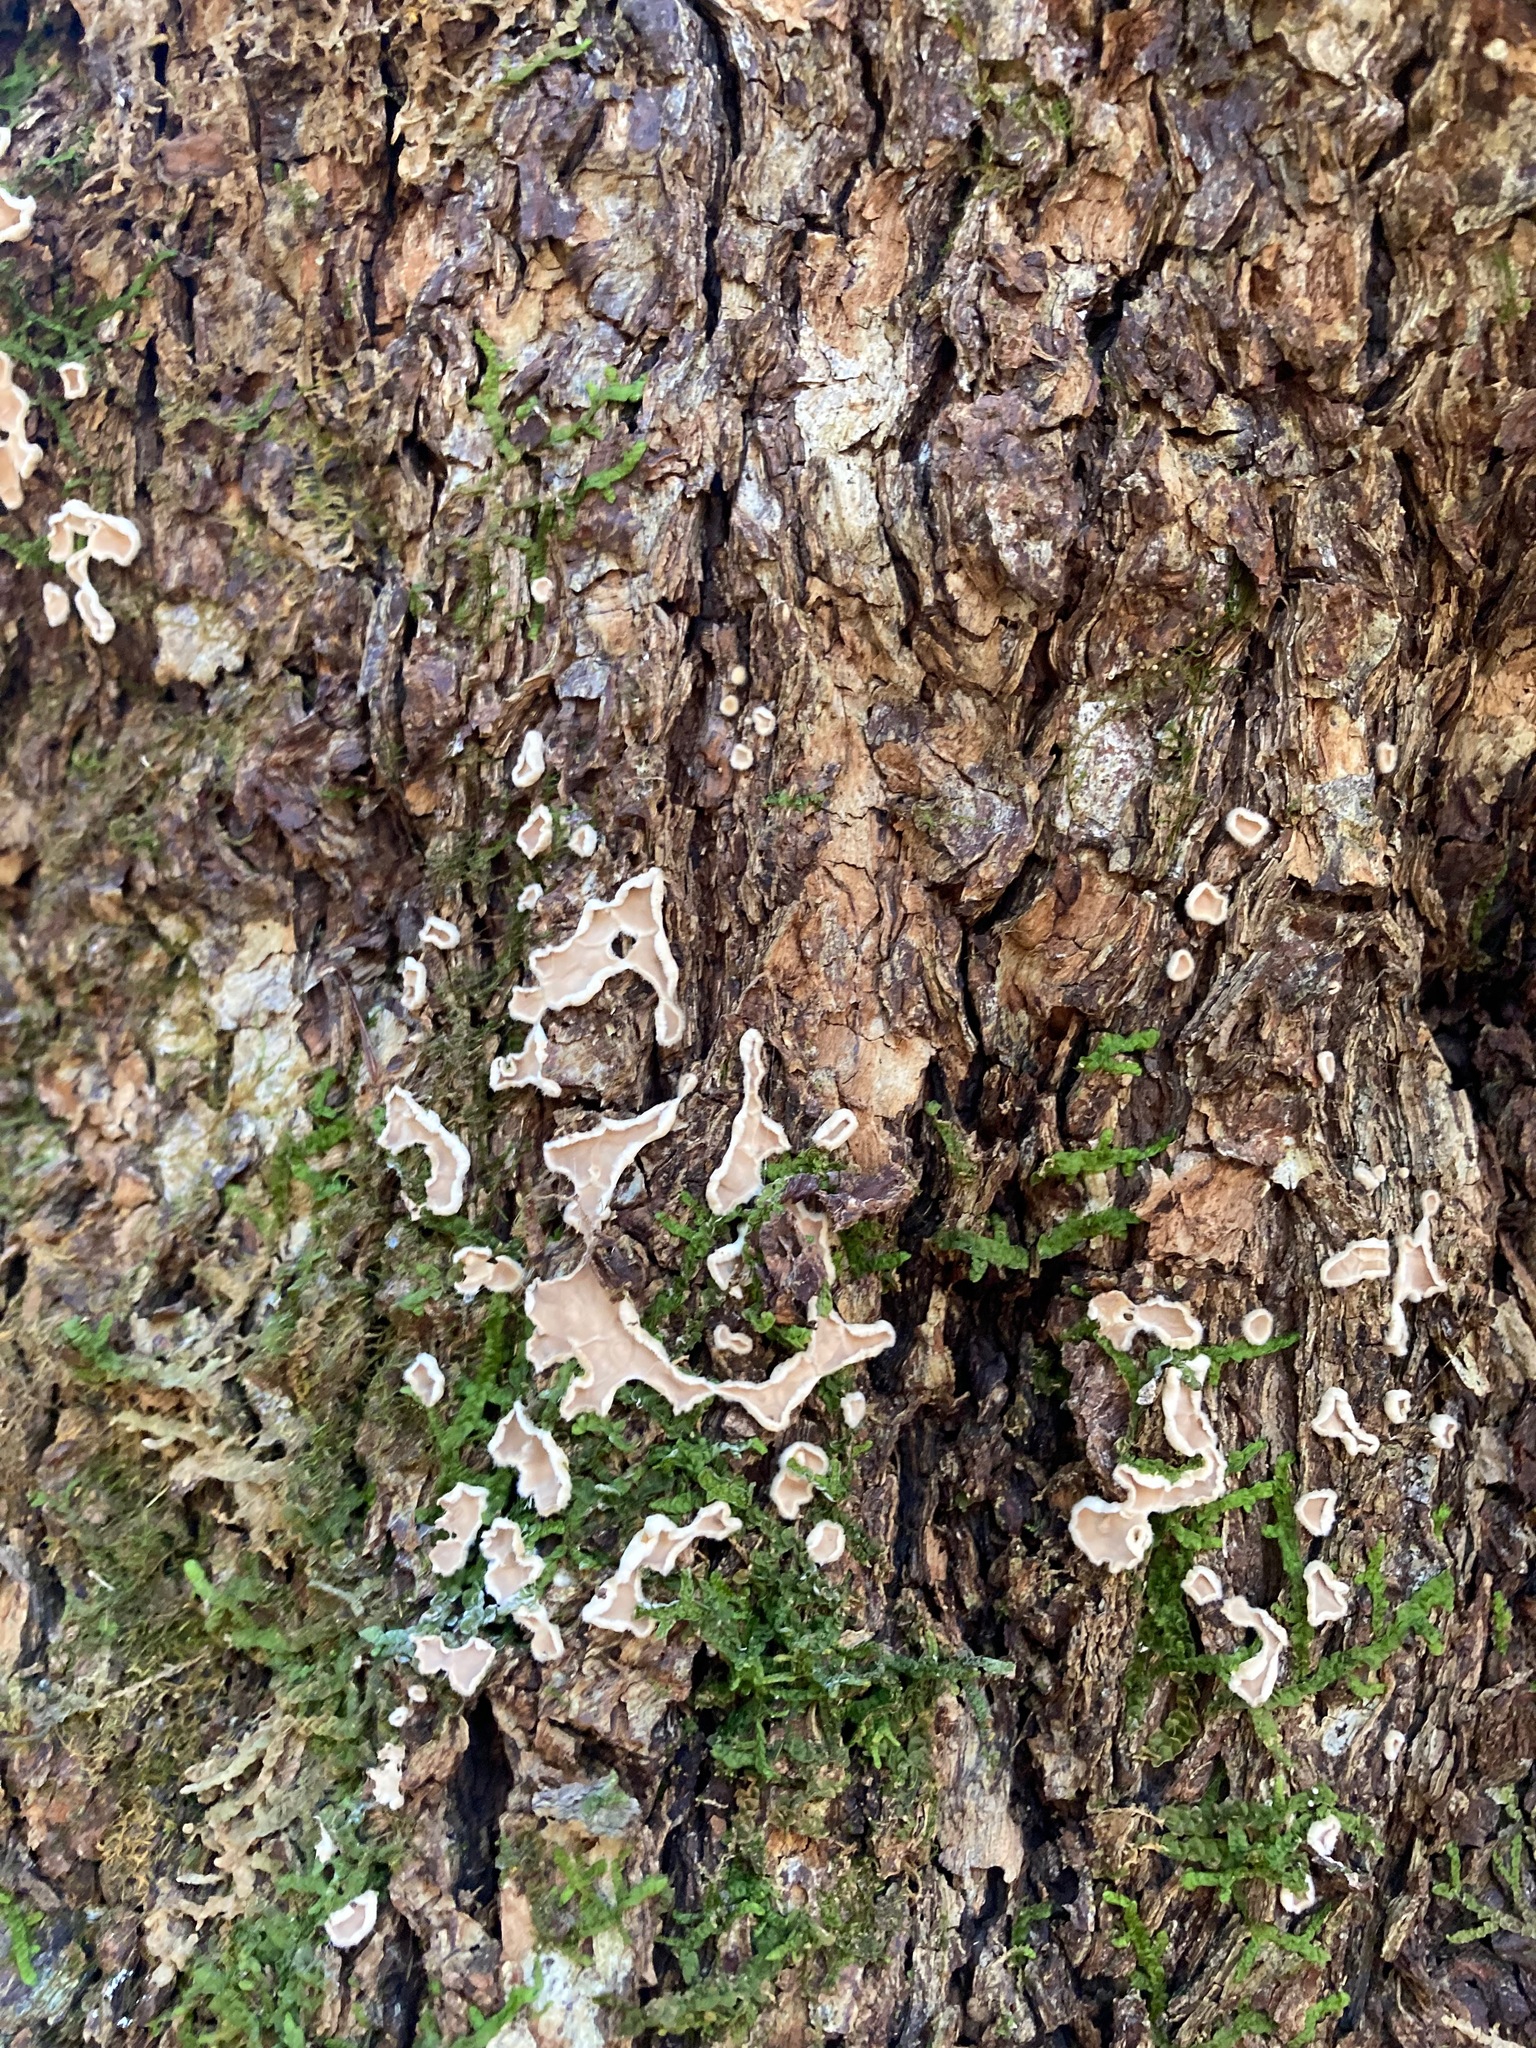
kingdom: Fungi
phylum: Basidiomycota
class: Agaricomycetes
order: Russulales
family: Stereaceae
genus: Acanthophysium
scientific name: Acanthophysium oakesii
